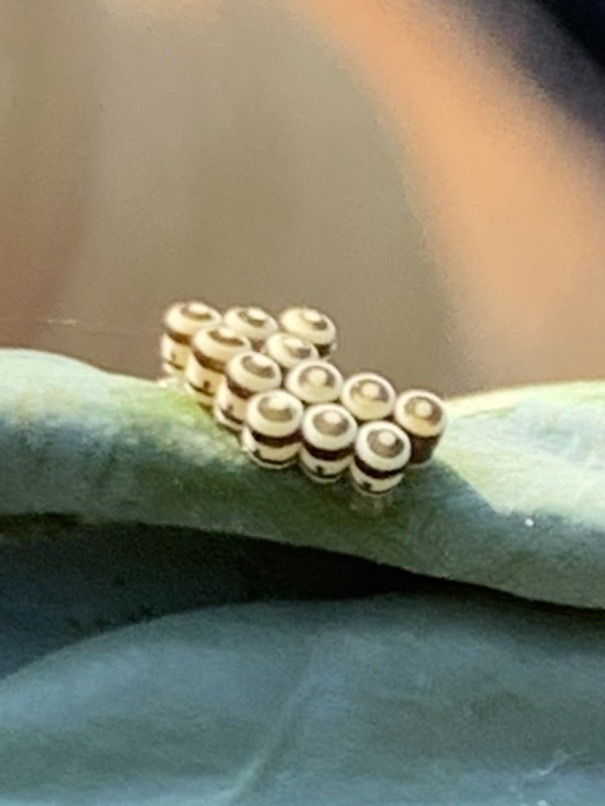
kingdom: Animalia
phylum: Arthropoda
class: Insecta
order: Hemiptera
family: Pentatomidae
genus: Murgantia
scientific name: Murgantia histrionica
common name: Harlequin bug
